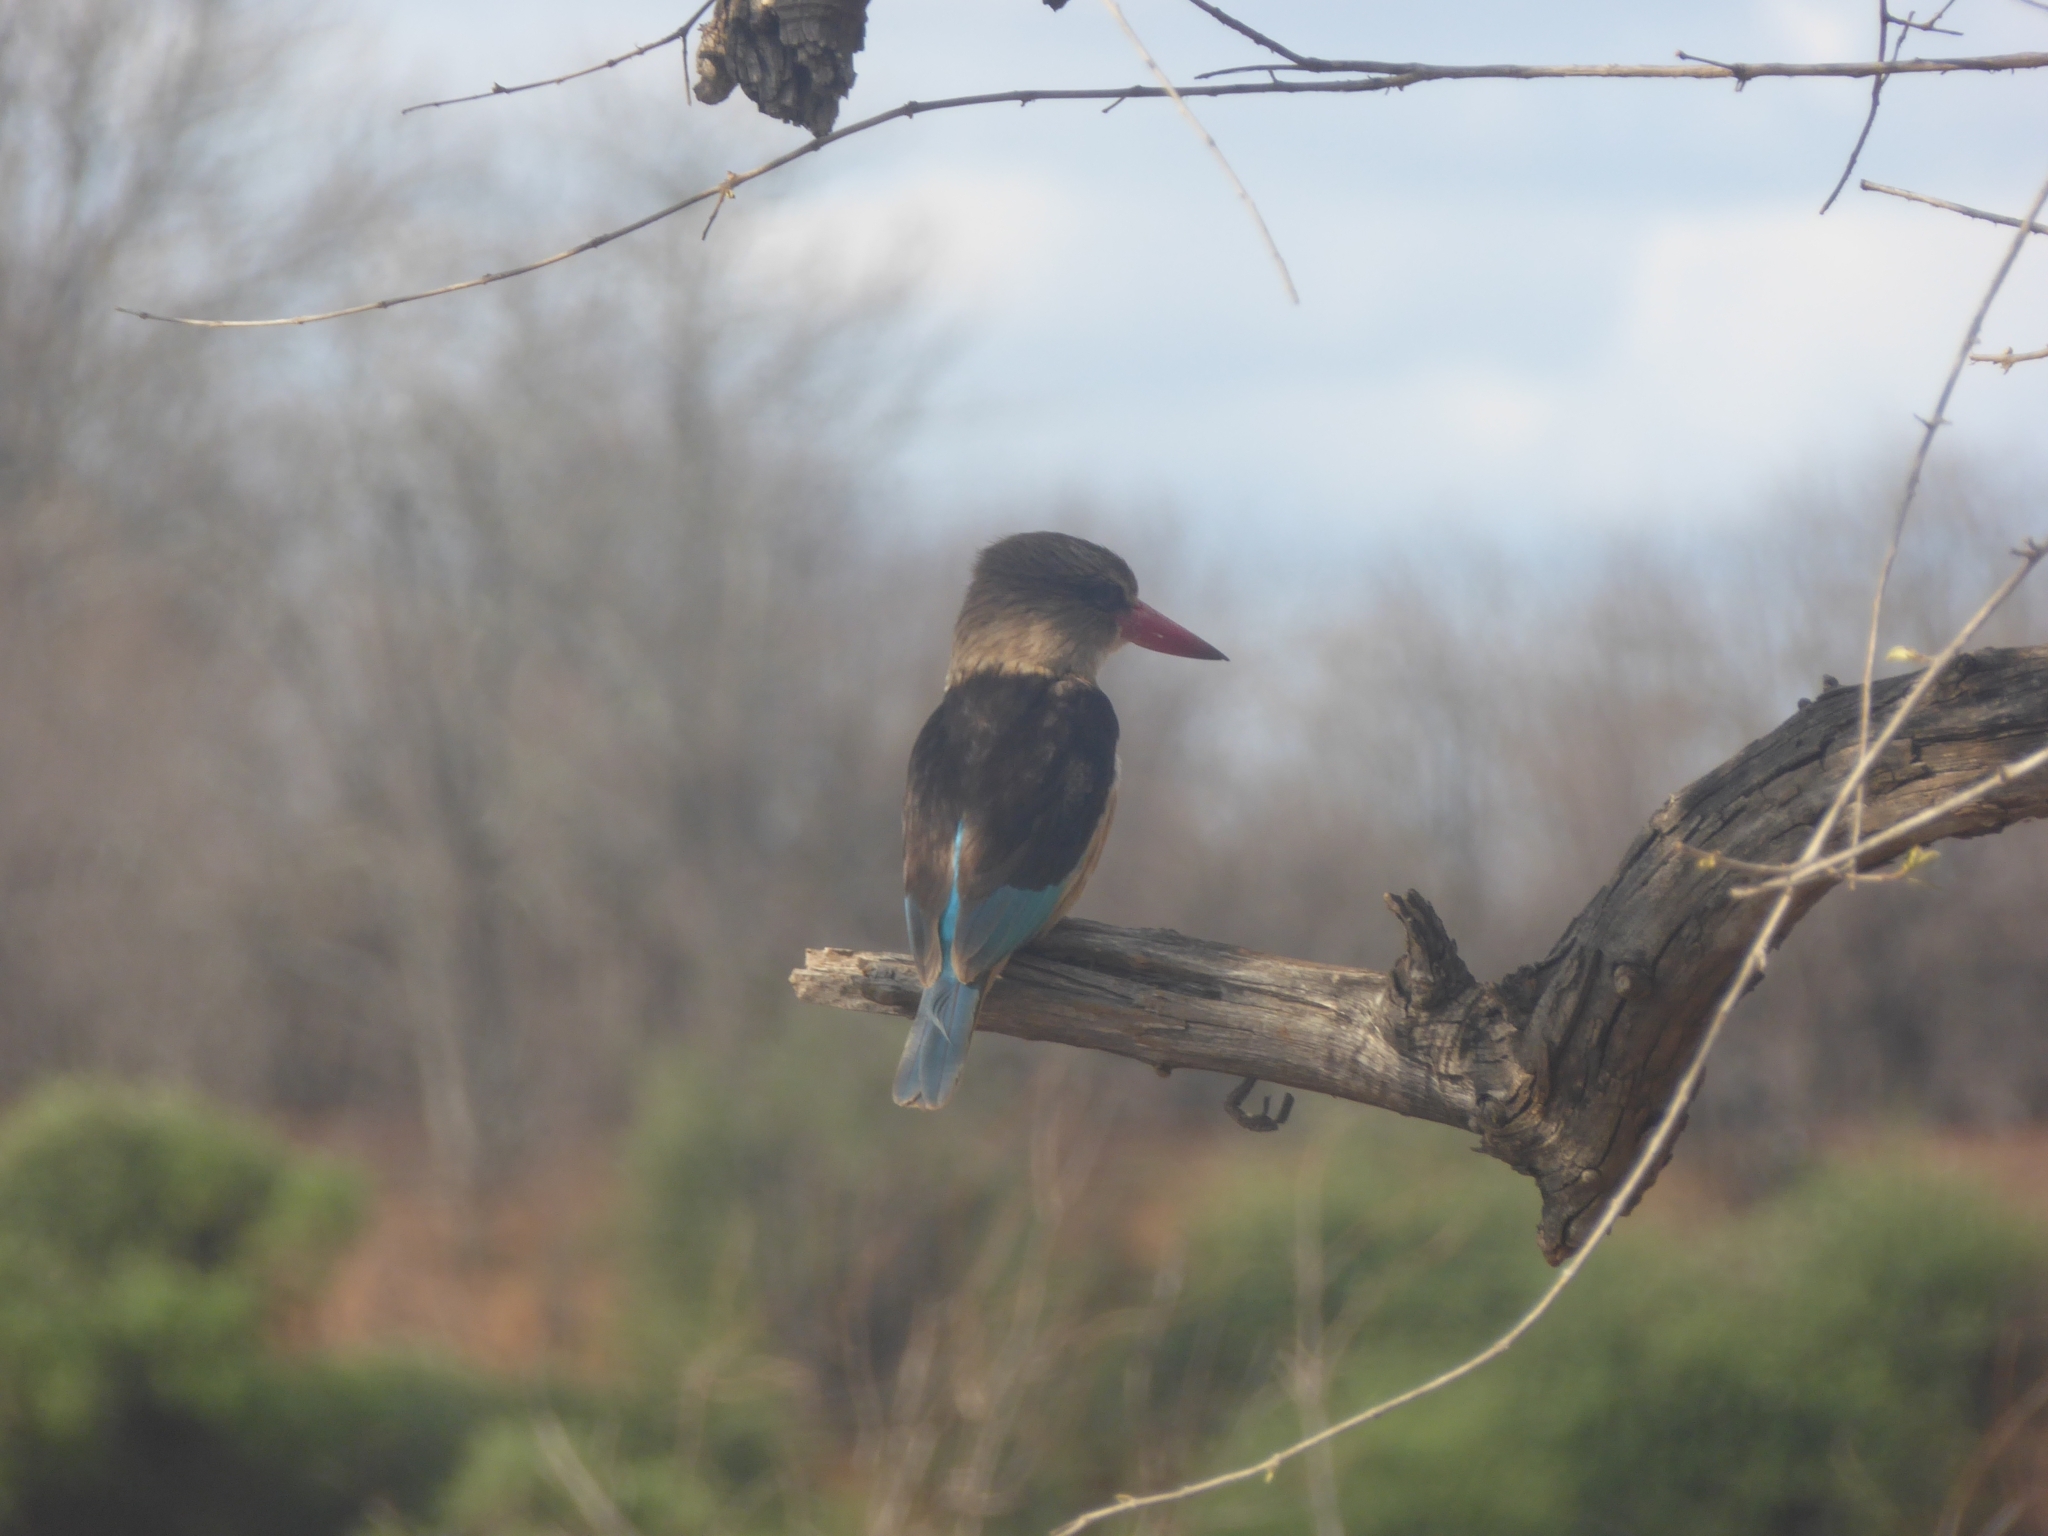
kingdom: Animalia
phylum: Chordata
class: Aves
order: Coraciiformes
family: Alcedinidae
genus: Halcyon
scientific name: Halcyon albiventris
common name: Brown-hooded kingfisher
